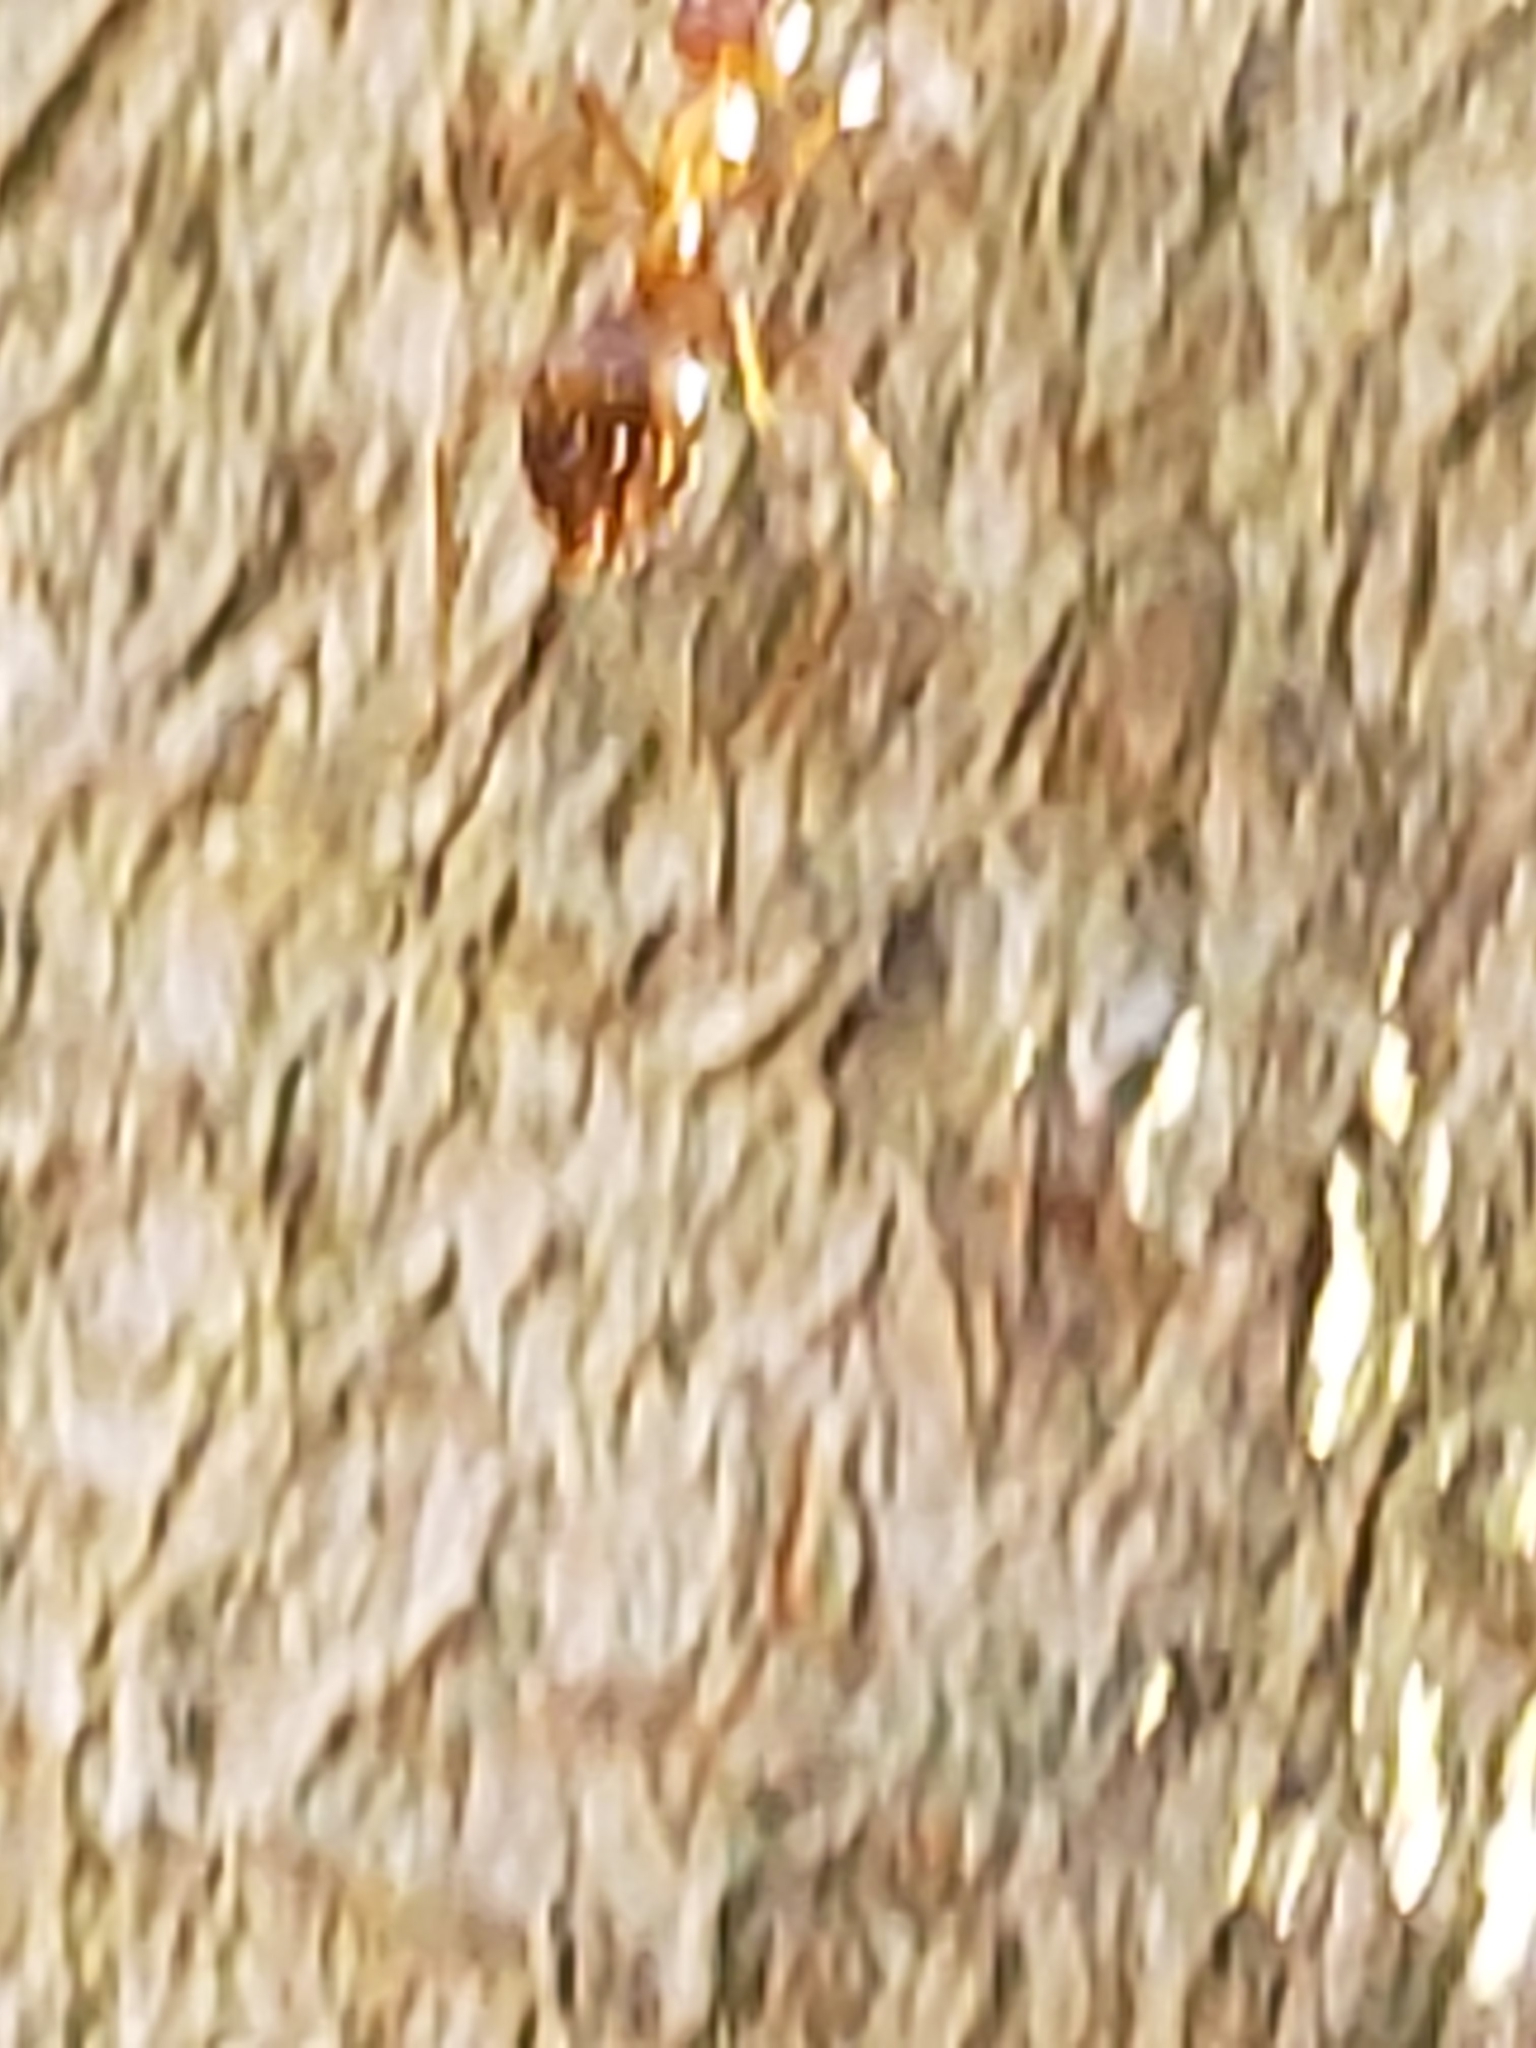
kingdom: Animalia
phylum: Arthropoda
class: Insecta
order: Hymenoptera
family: Formicidae
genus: Prenolepis
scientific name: Prenolepis imparis
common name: Small honey ant
